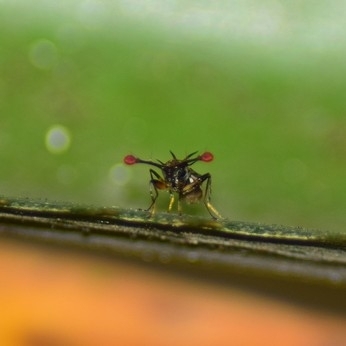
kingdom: Animalia
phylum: Arthropoda
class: Insecta
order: Diptera
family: Diopsidae
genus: Teleopsis
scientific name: Teleopsis sykesii
